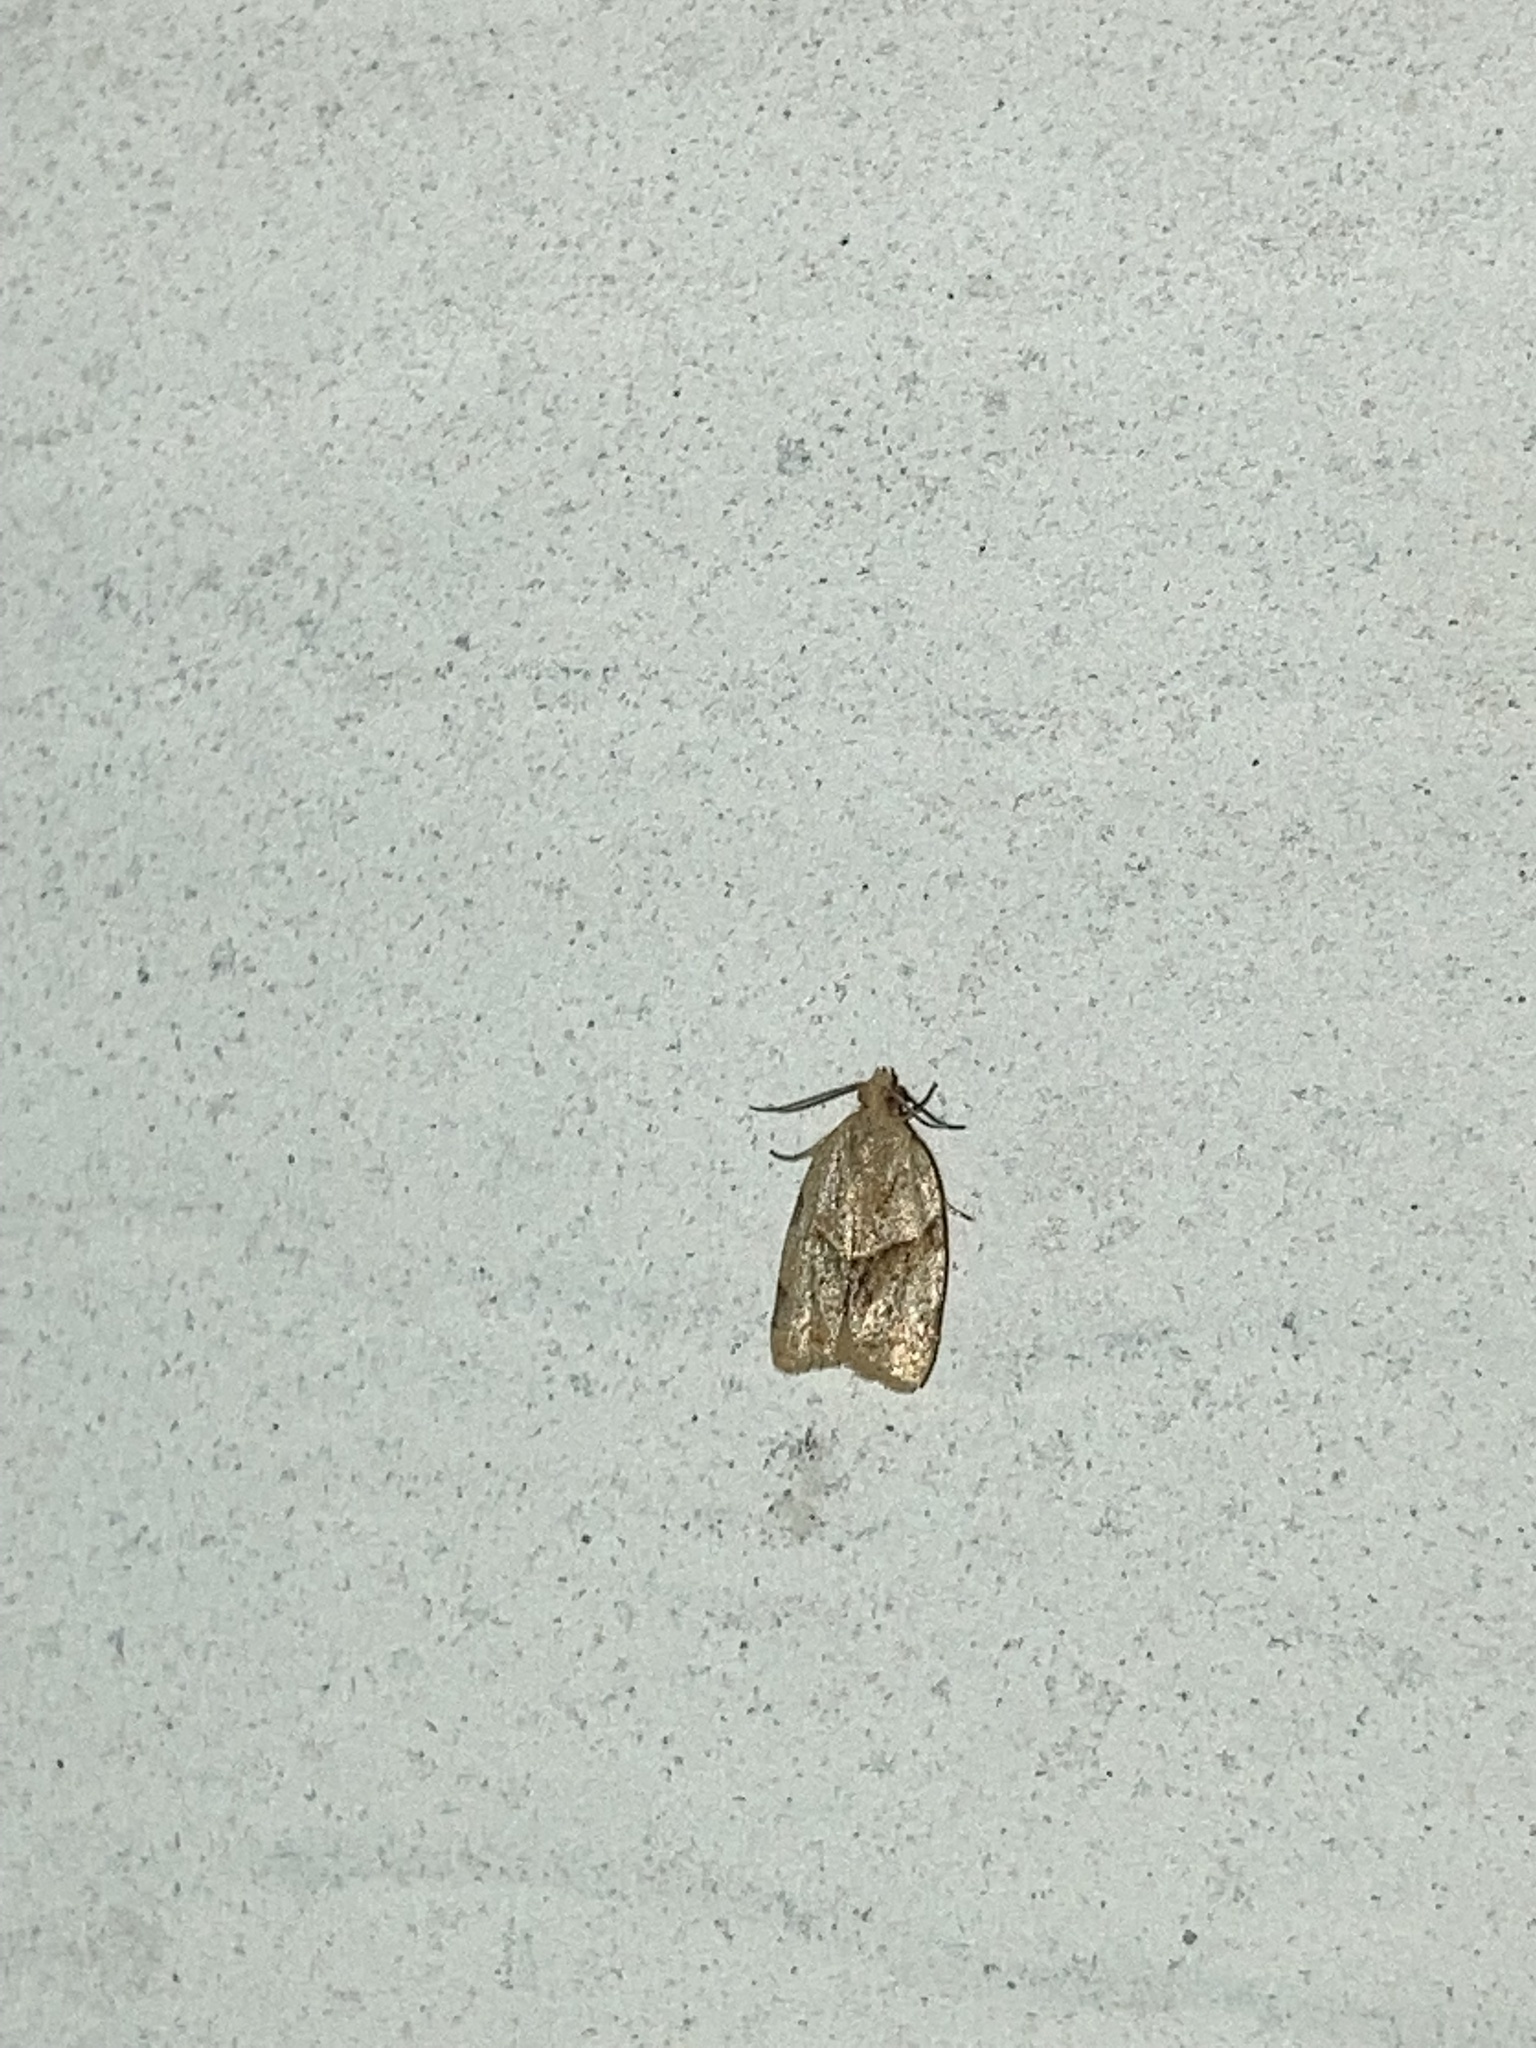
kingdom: Animalia
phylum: Arthropoda
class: Insecta
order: Lepidoptera
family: Tortricidae
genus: Clepsis
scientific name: Clepsis peritana
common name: Garden tortrix
